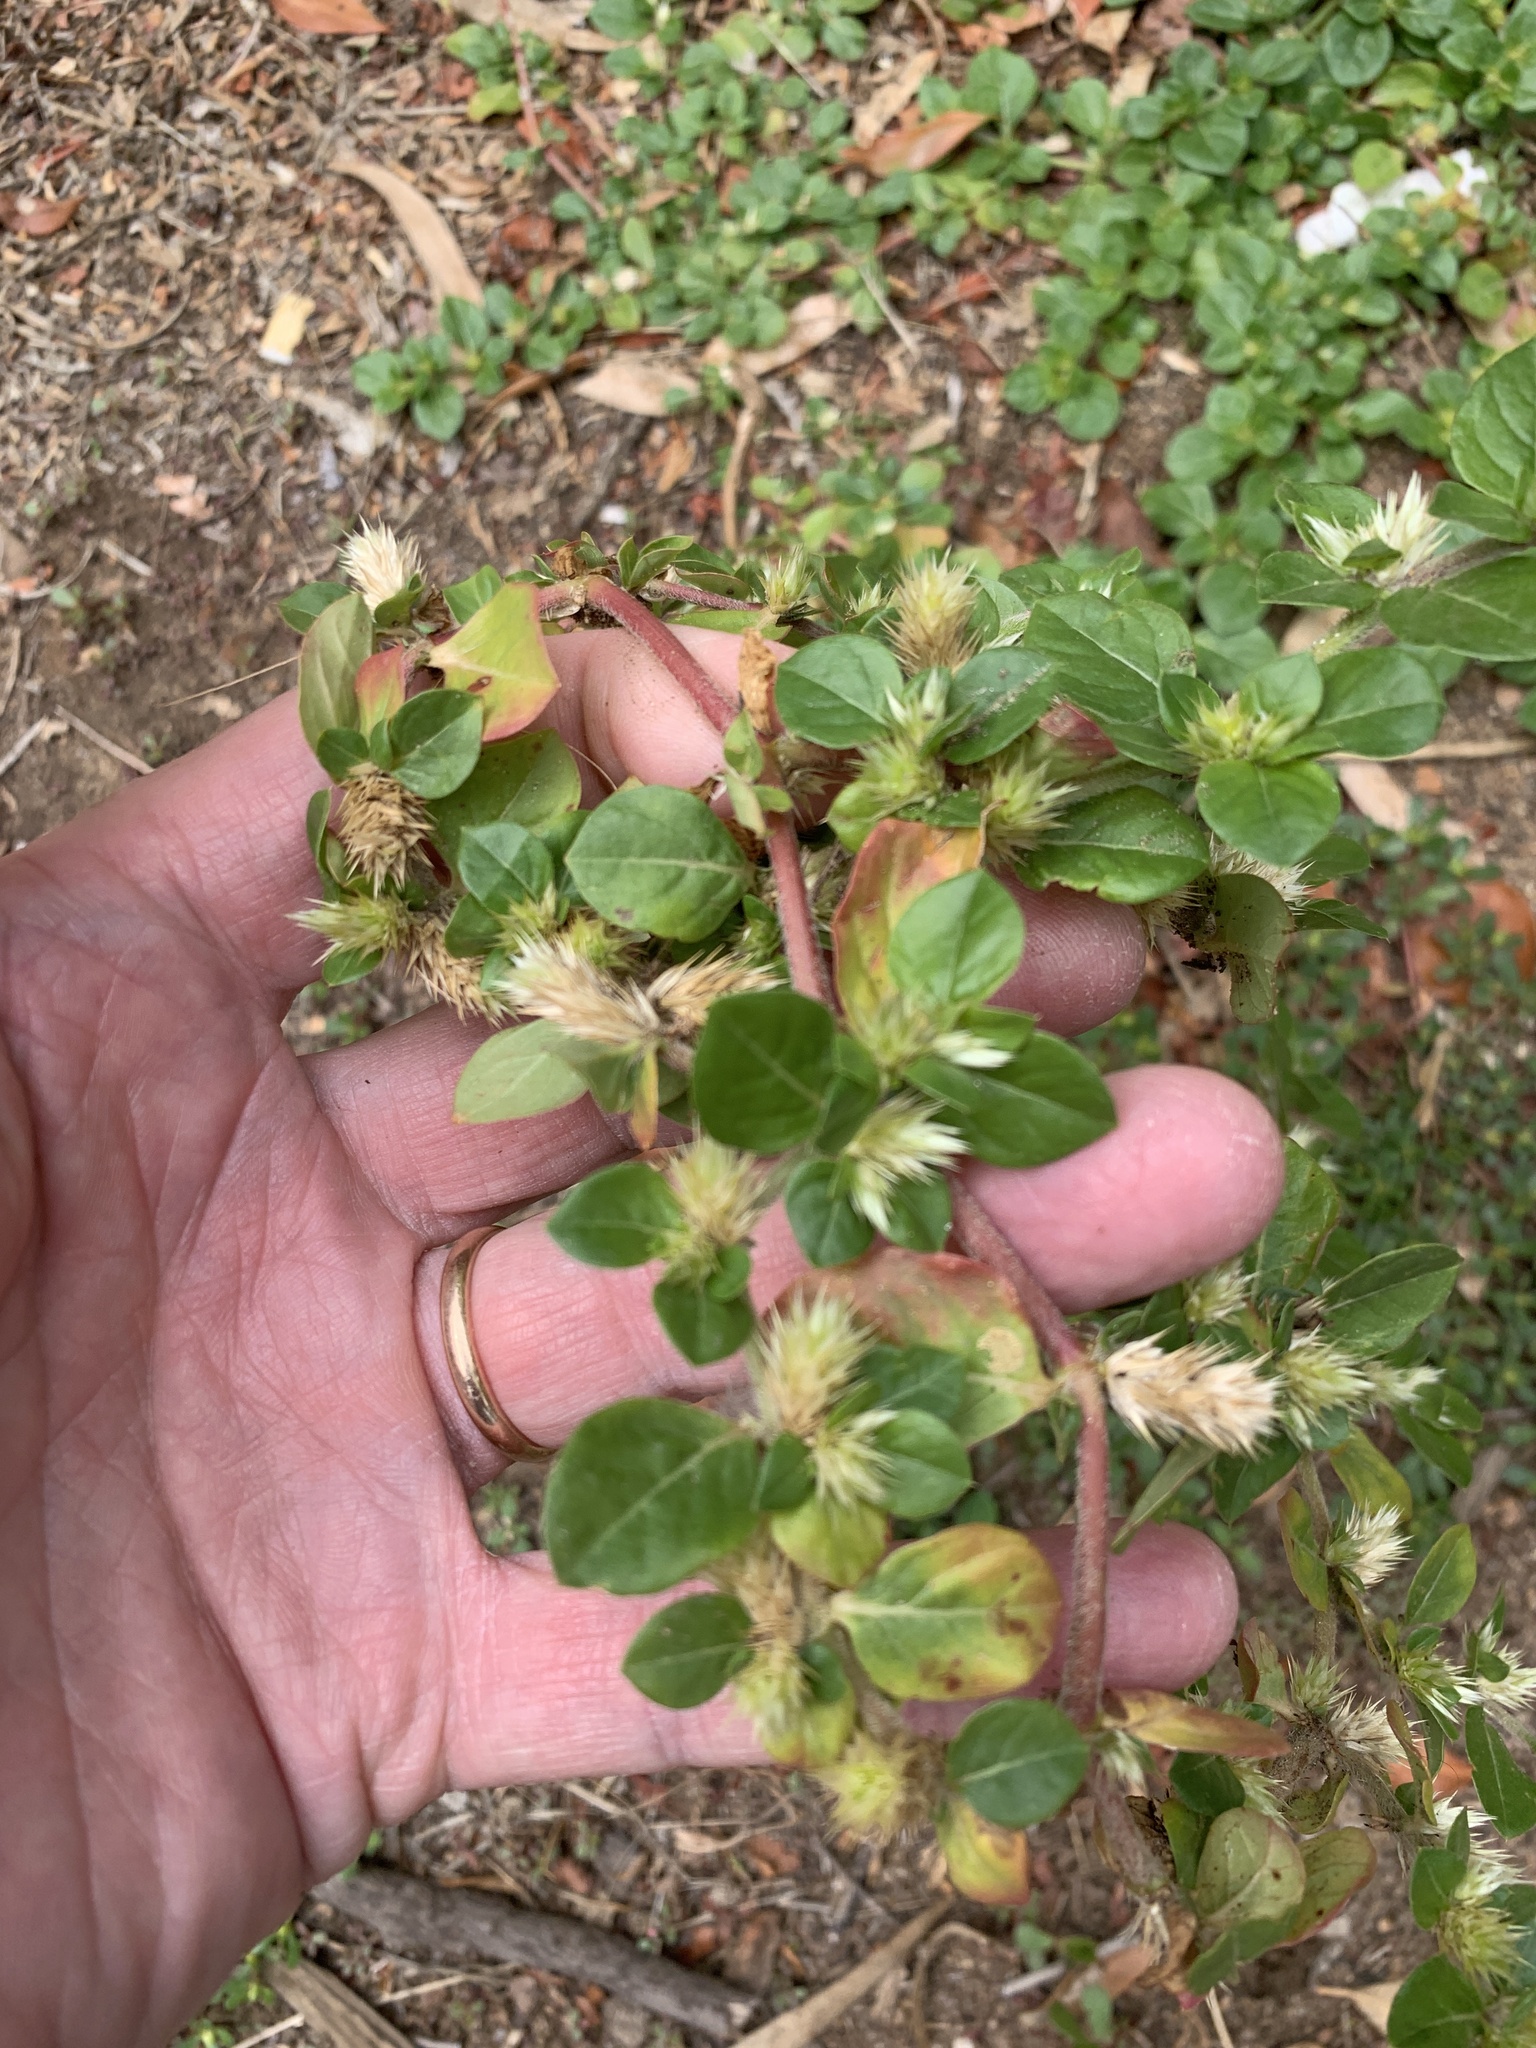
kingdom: Plantae
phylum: Tracheophyta
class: Magnoliopsida
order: Caryophyllales
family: Amaranthaceae
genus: Alternanthera
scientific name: Alternanthera pungens
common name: Khakiweed
